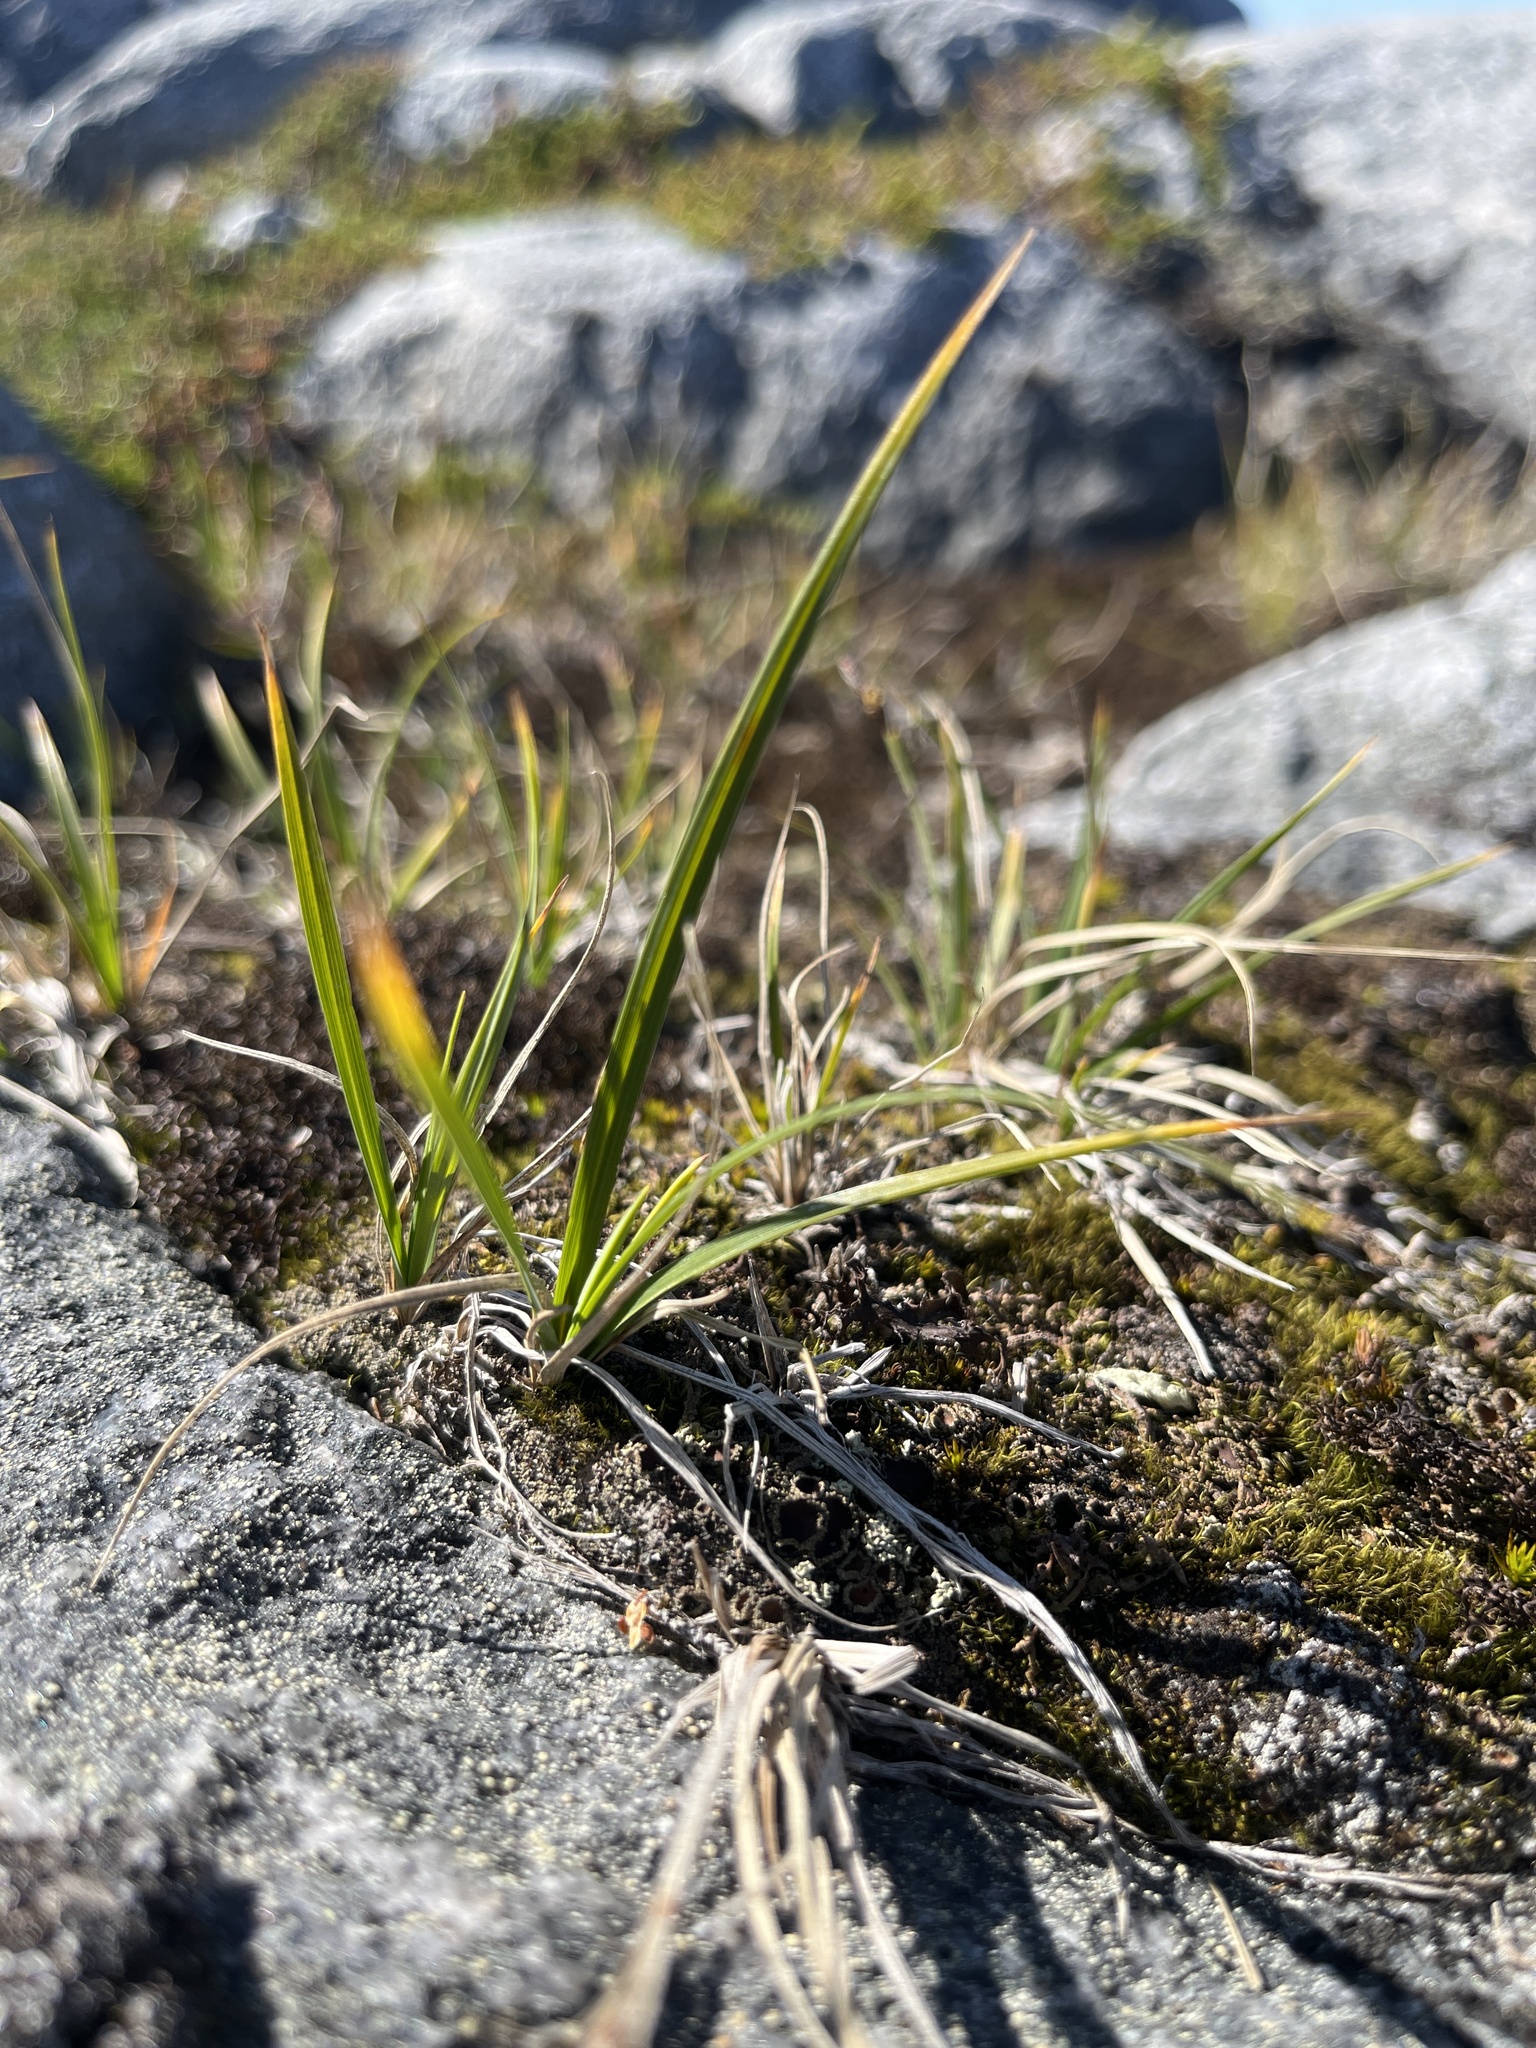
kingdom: Plantae
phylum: Tracheophyta
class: Liliopsida
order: Poales
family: Cyperaceae
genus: Carex
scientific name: Carex bigelowii
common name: Stiff sedge
